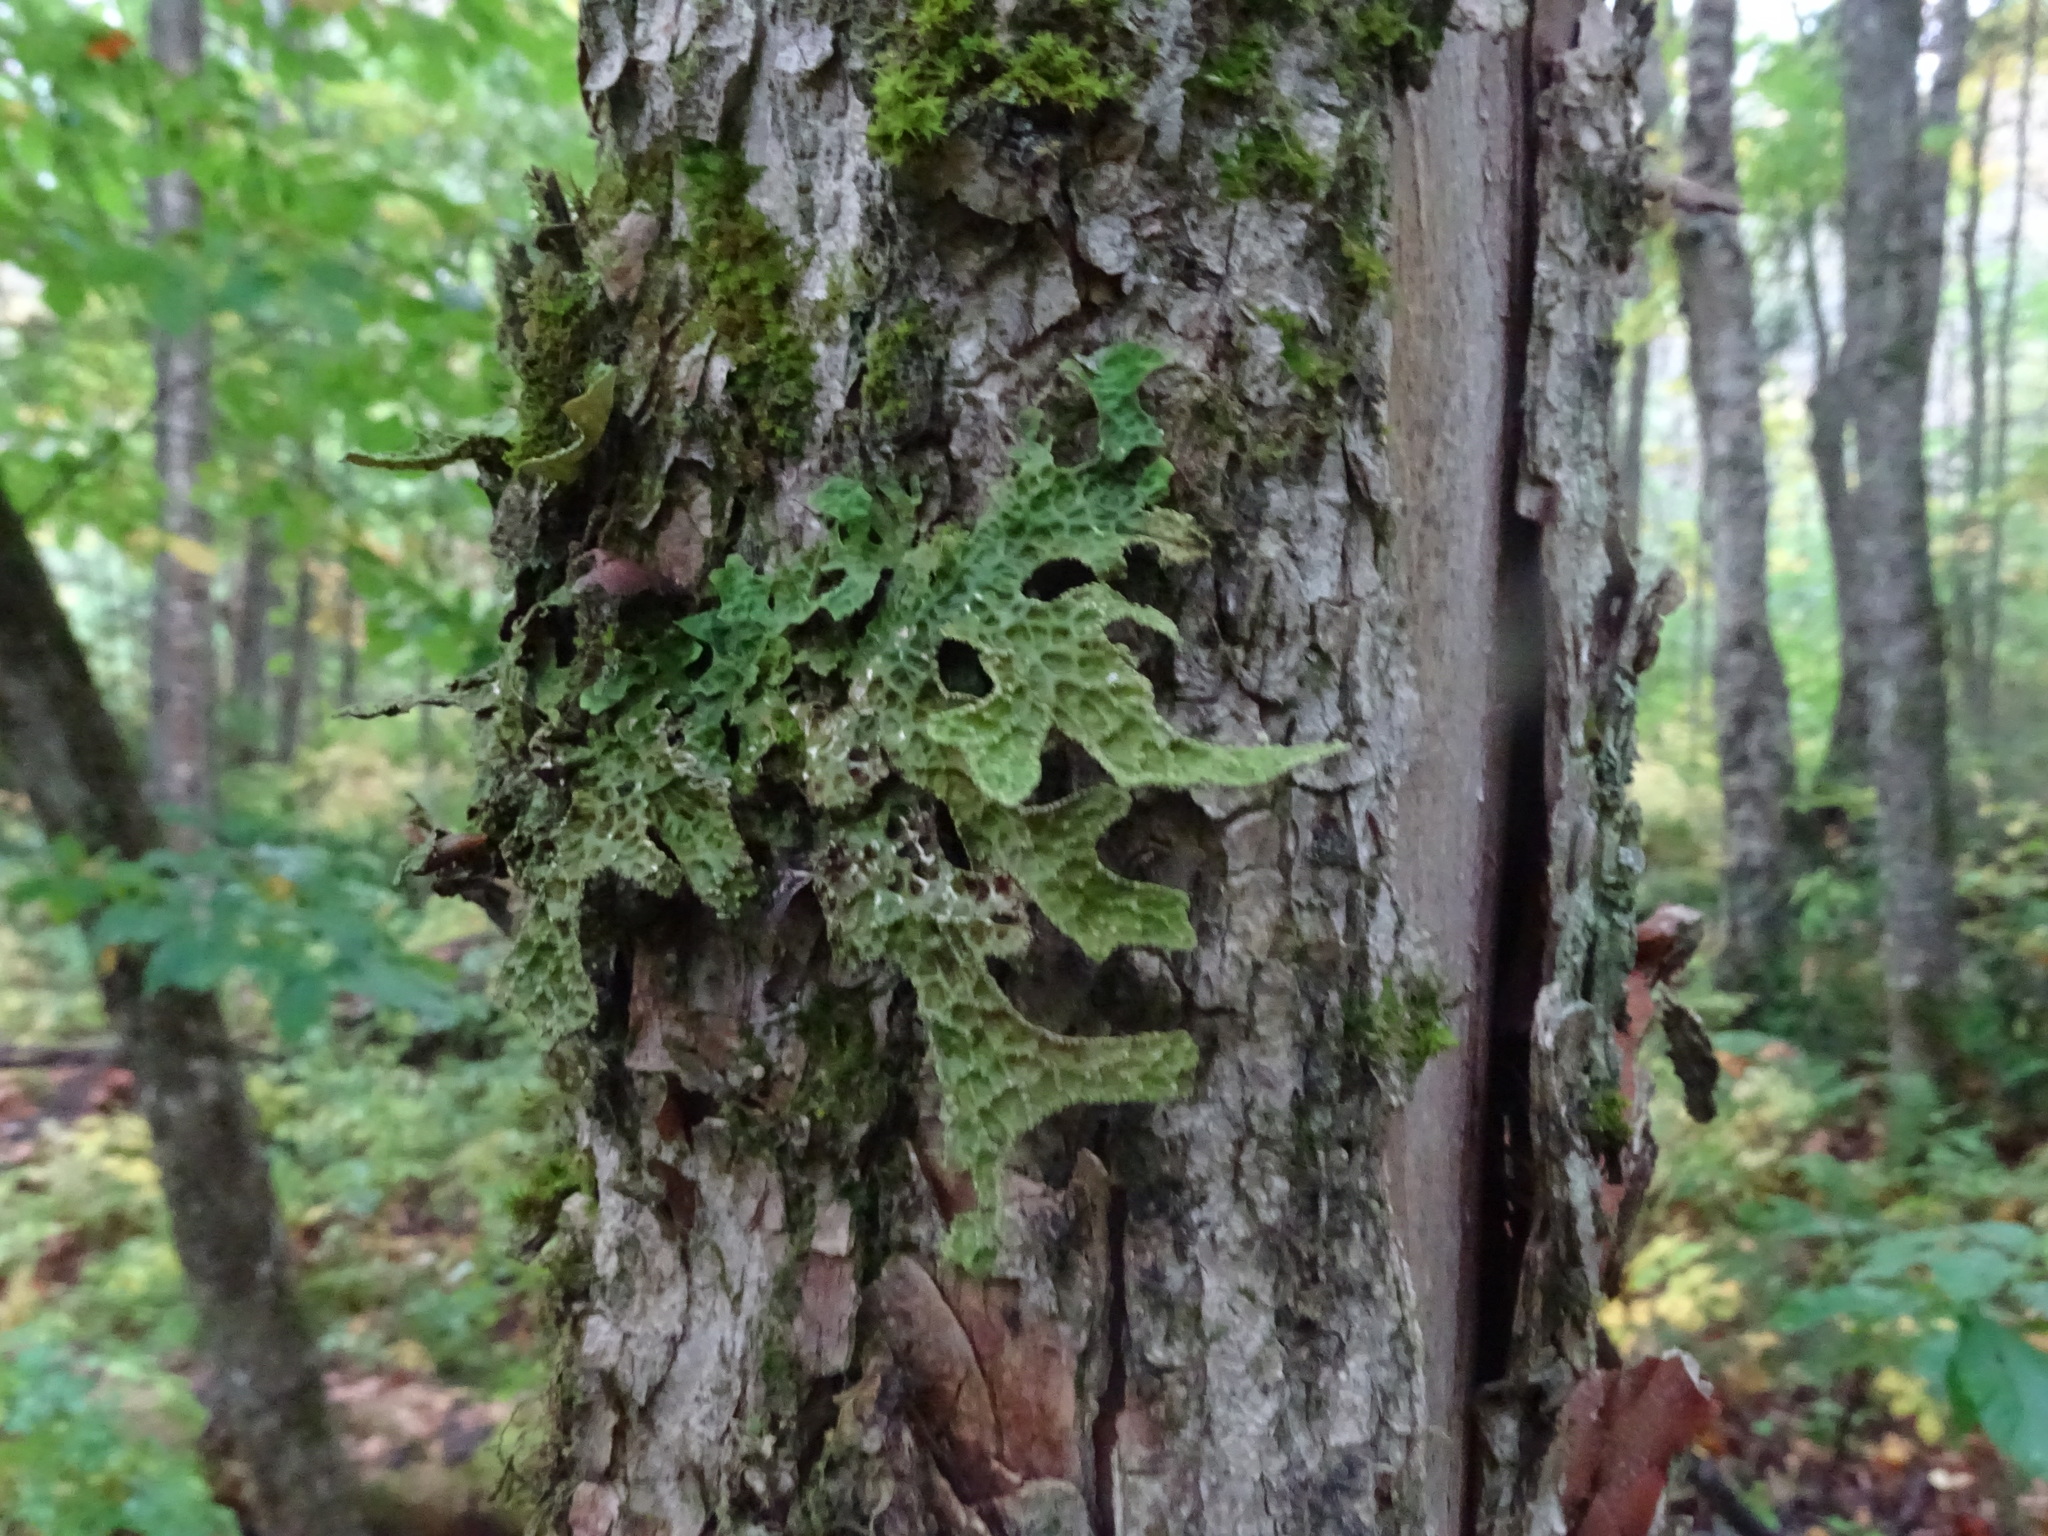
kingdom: Fungi
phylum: Ascomycota
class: Lecanoromycetes
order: Peltigerales
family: Lobariaceae
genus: Lobaria
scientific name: Lobaria pulmonaria
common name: Lungwort
